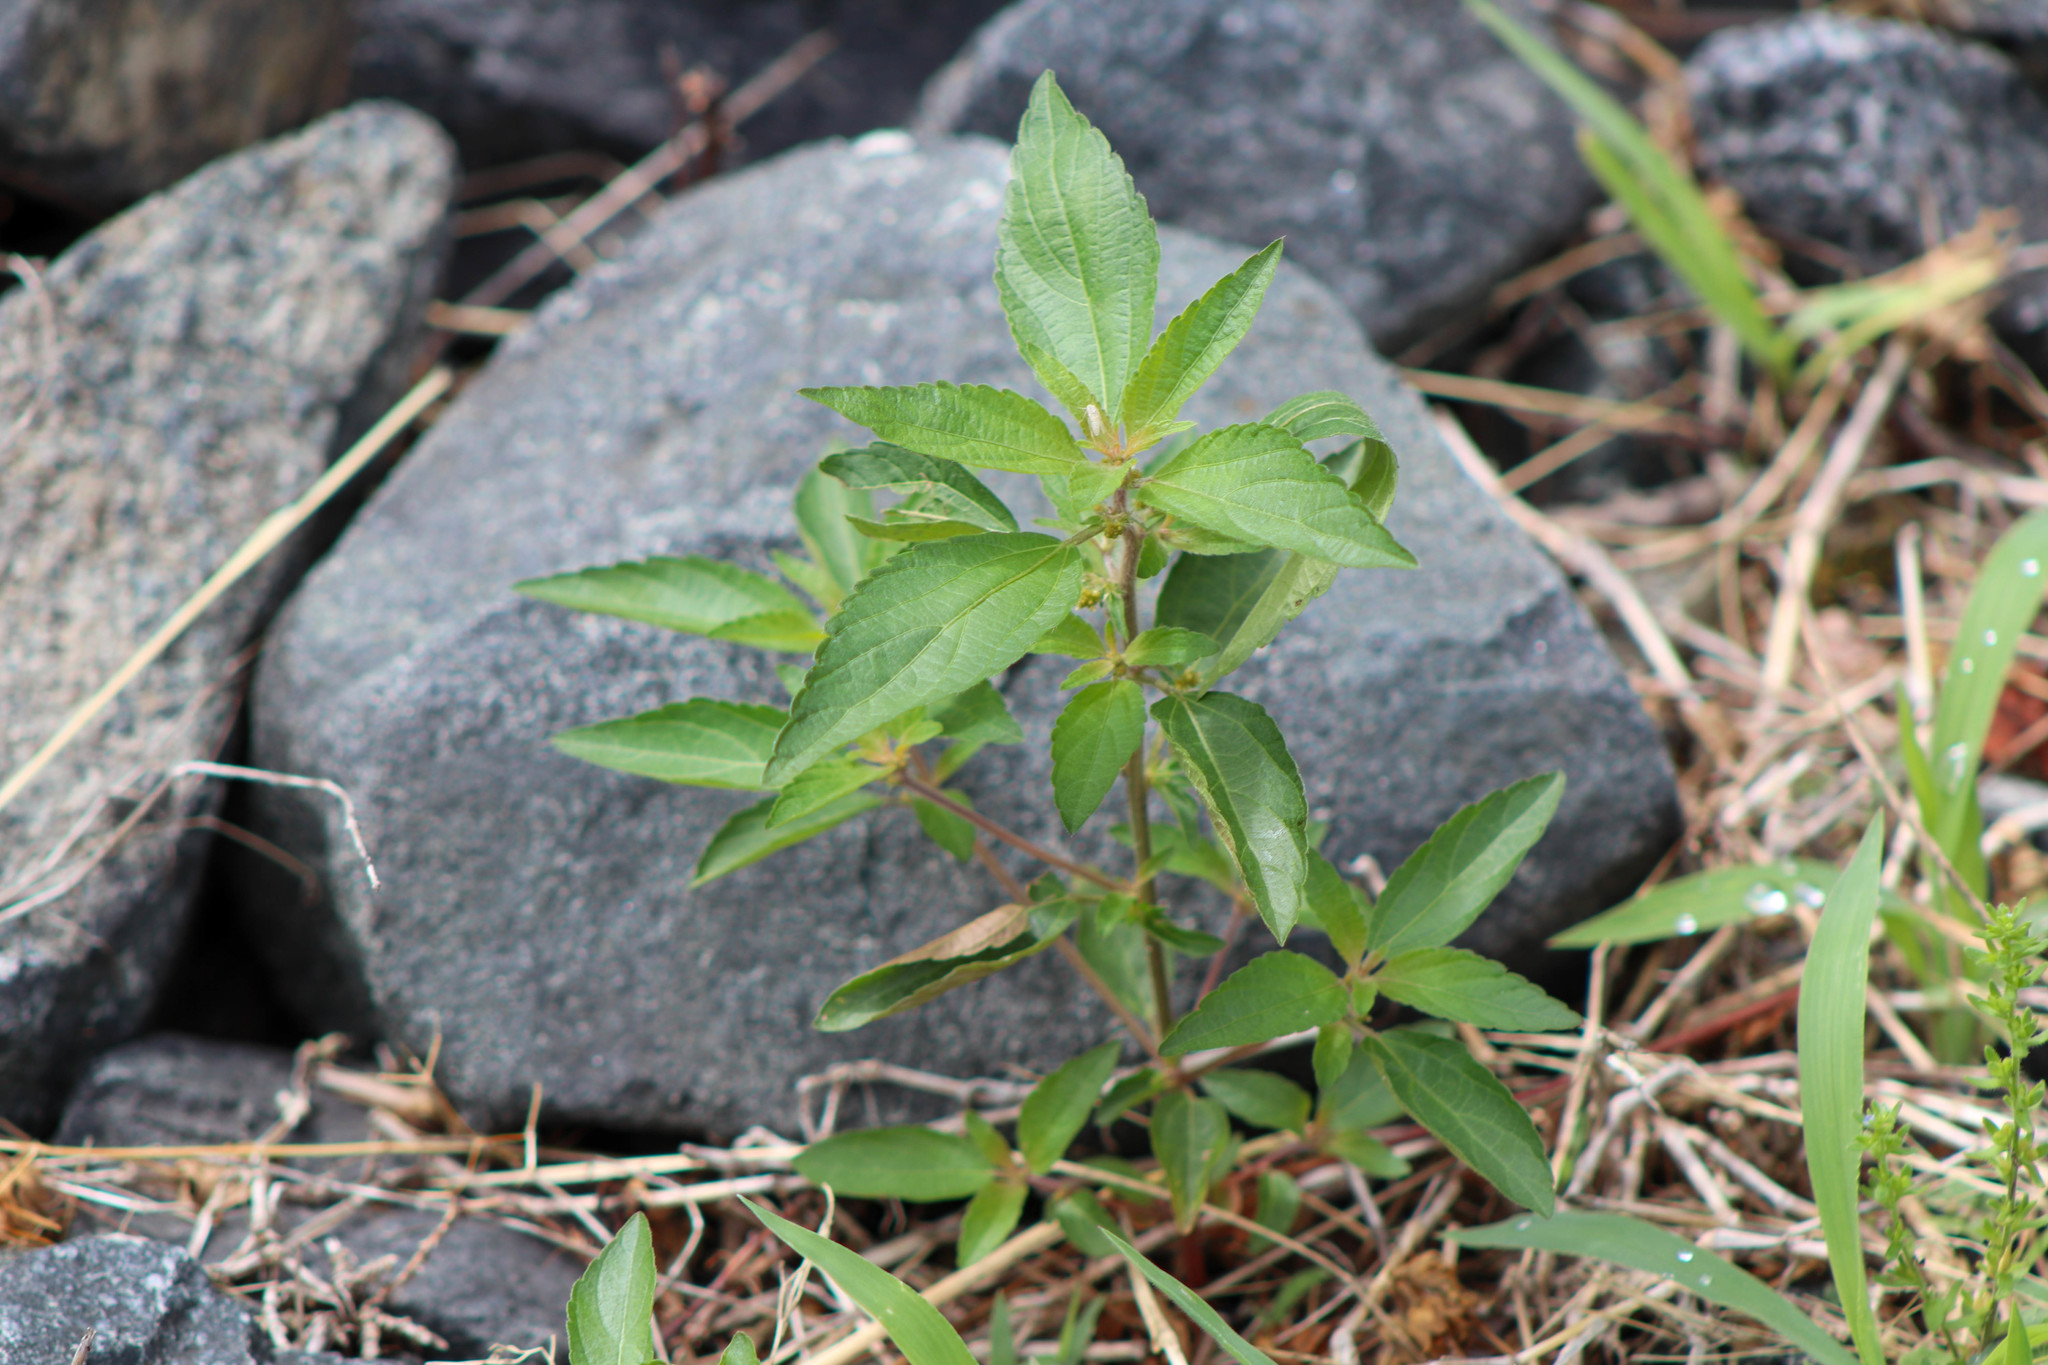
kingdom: Plantae
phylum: Tracheophyta
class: Magnoliopsida
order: Malpighiales
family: Euphorbiaceae
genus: Acalypha
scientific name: Acalypha rhomboidea
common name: Rhombic copperleaf
